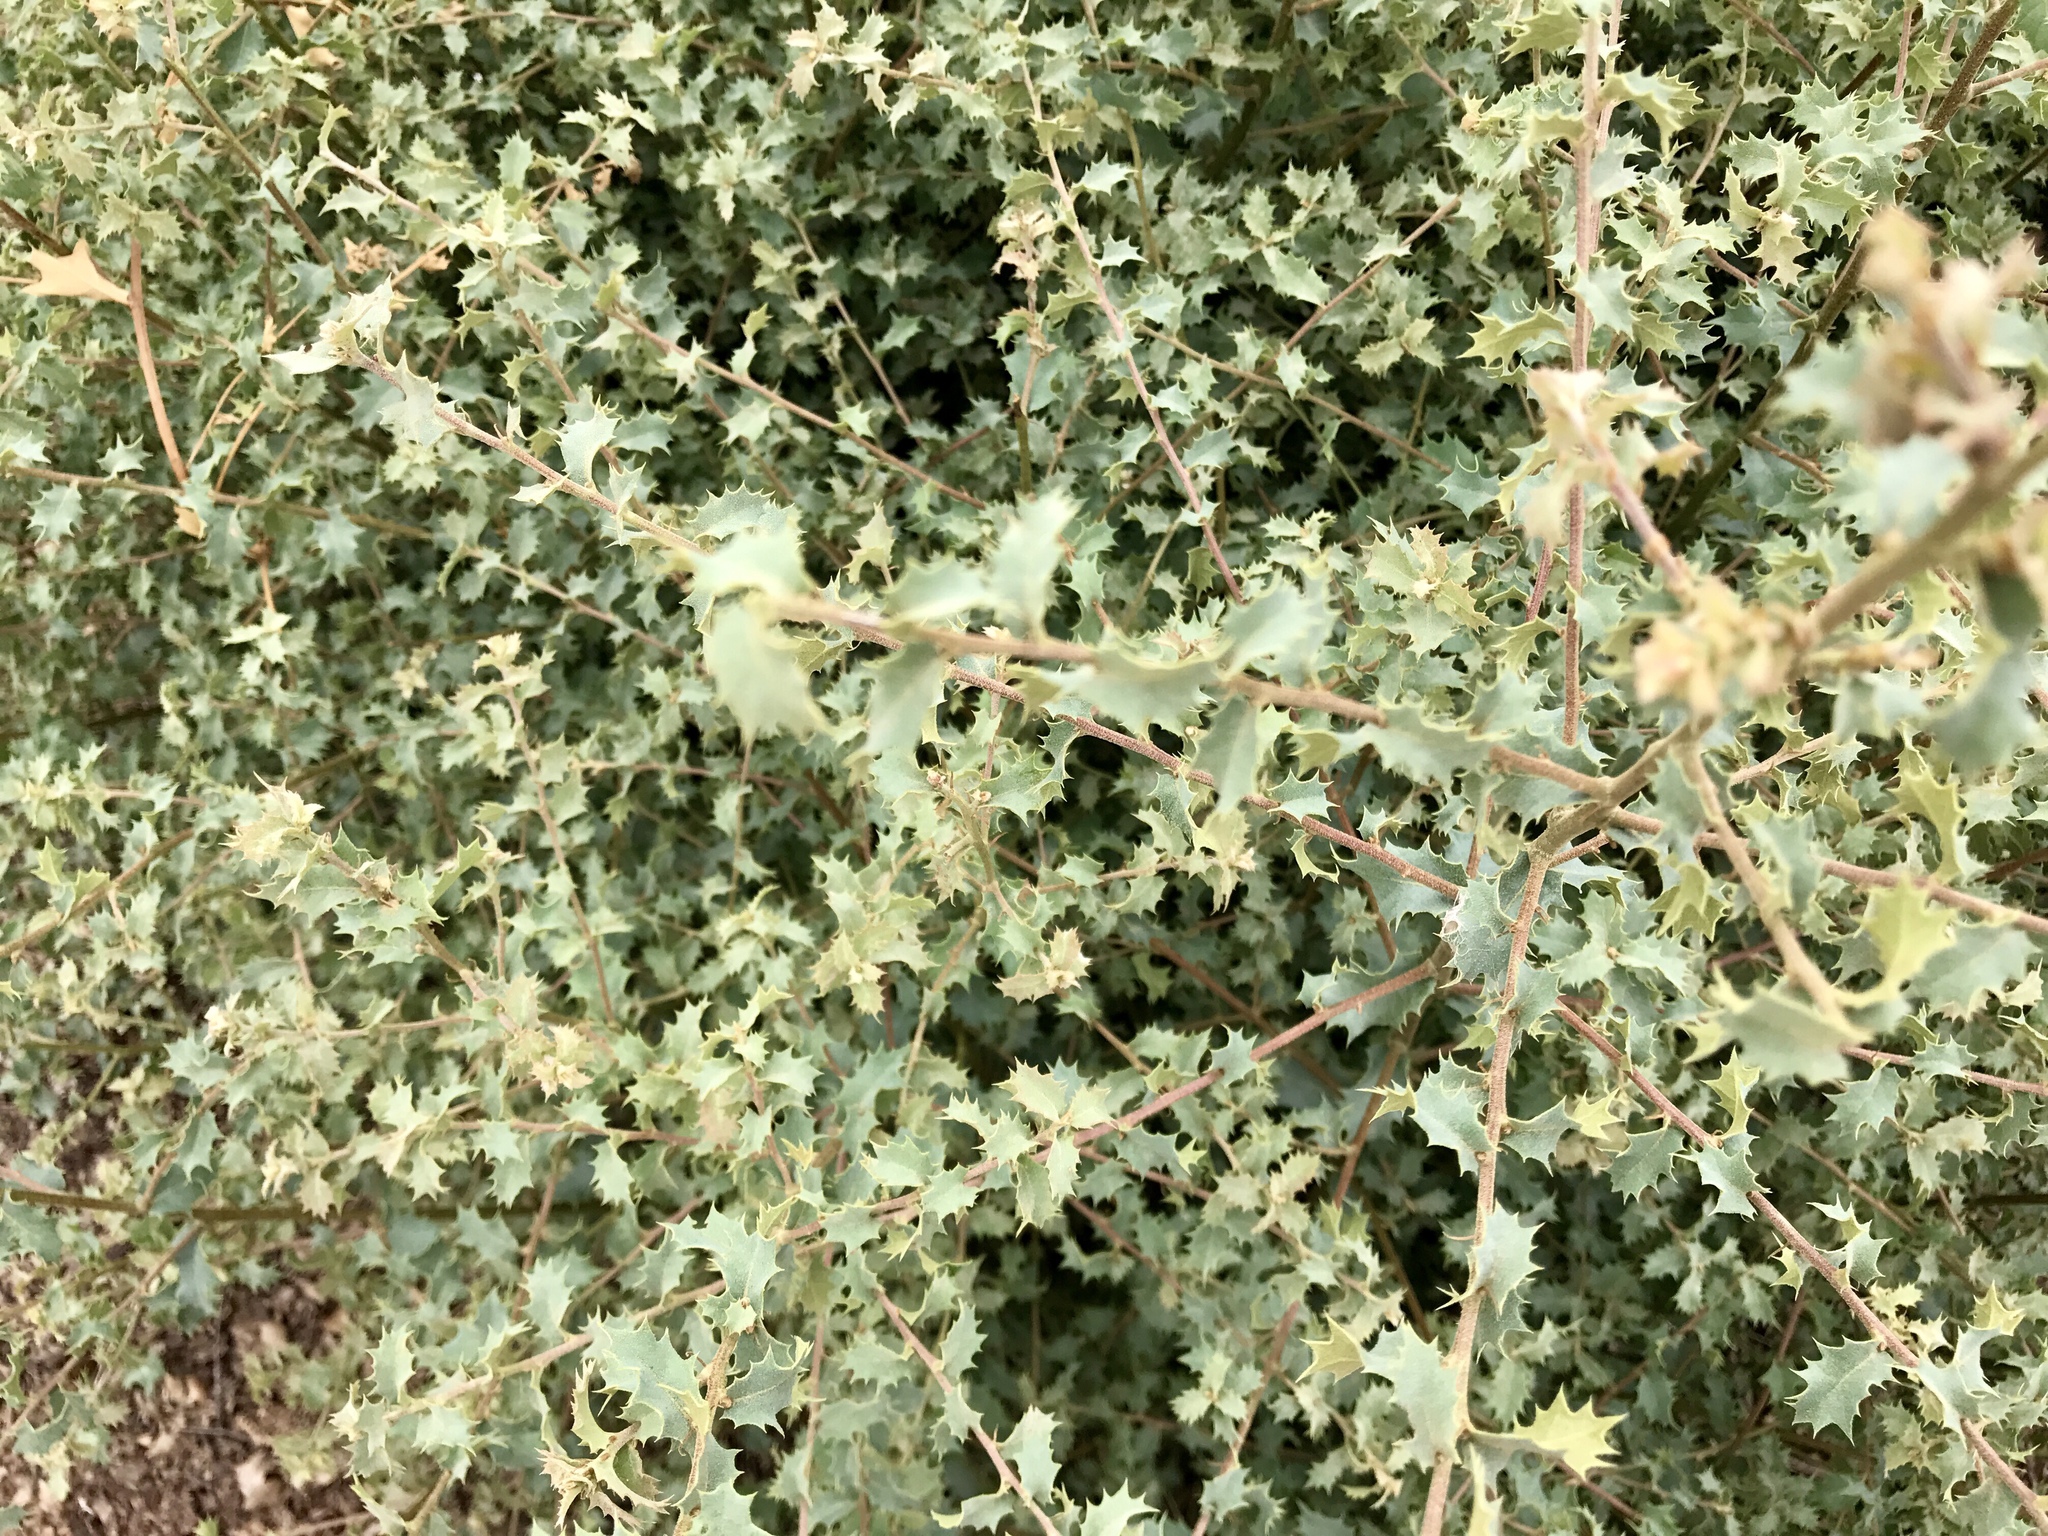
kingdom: Plantae
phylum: Tracheophyta
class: Magnoliopsida
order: Fagales
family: Fagaceae
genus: Quercus
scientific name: Quercus turbinella
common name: Sonoran scrub oak
